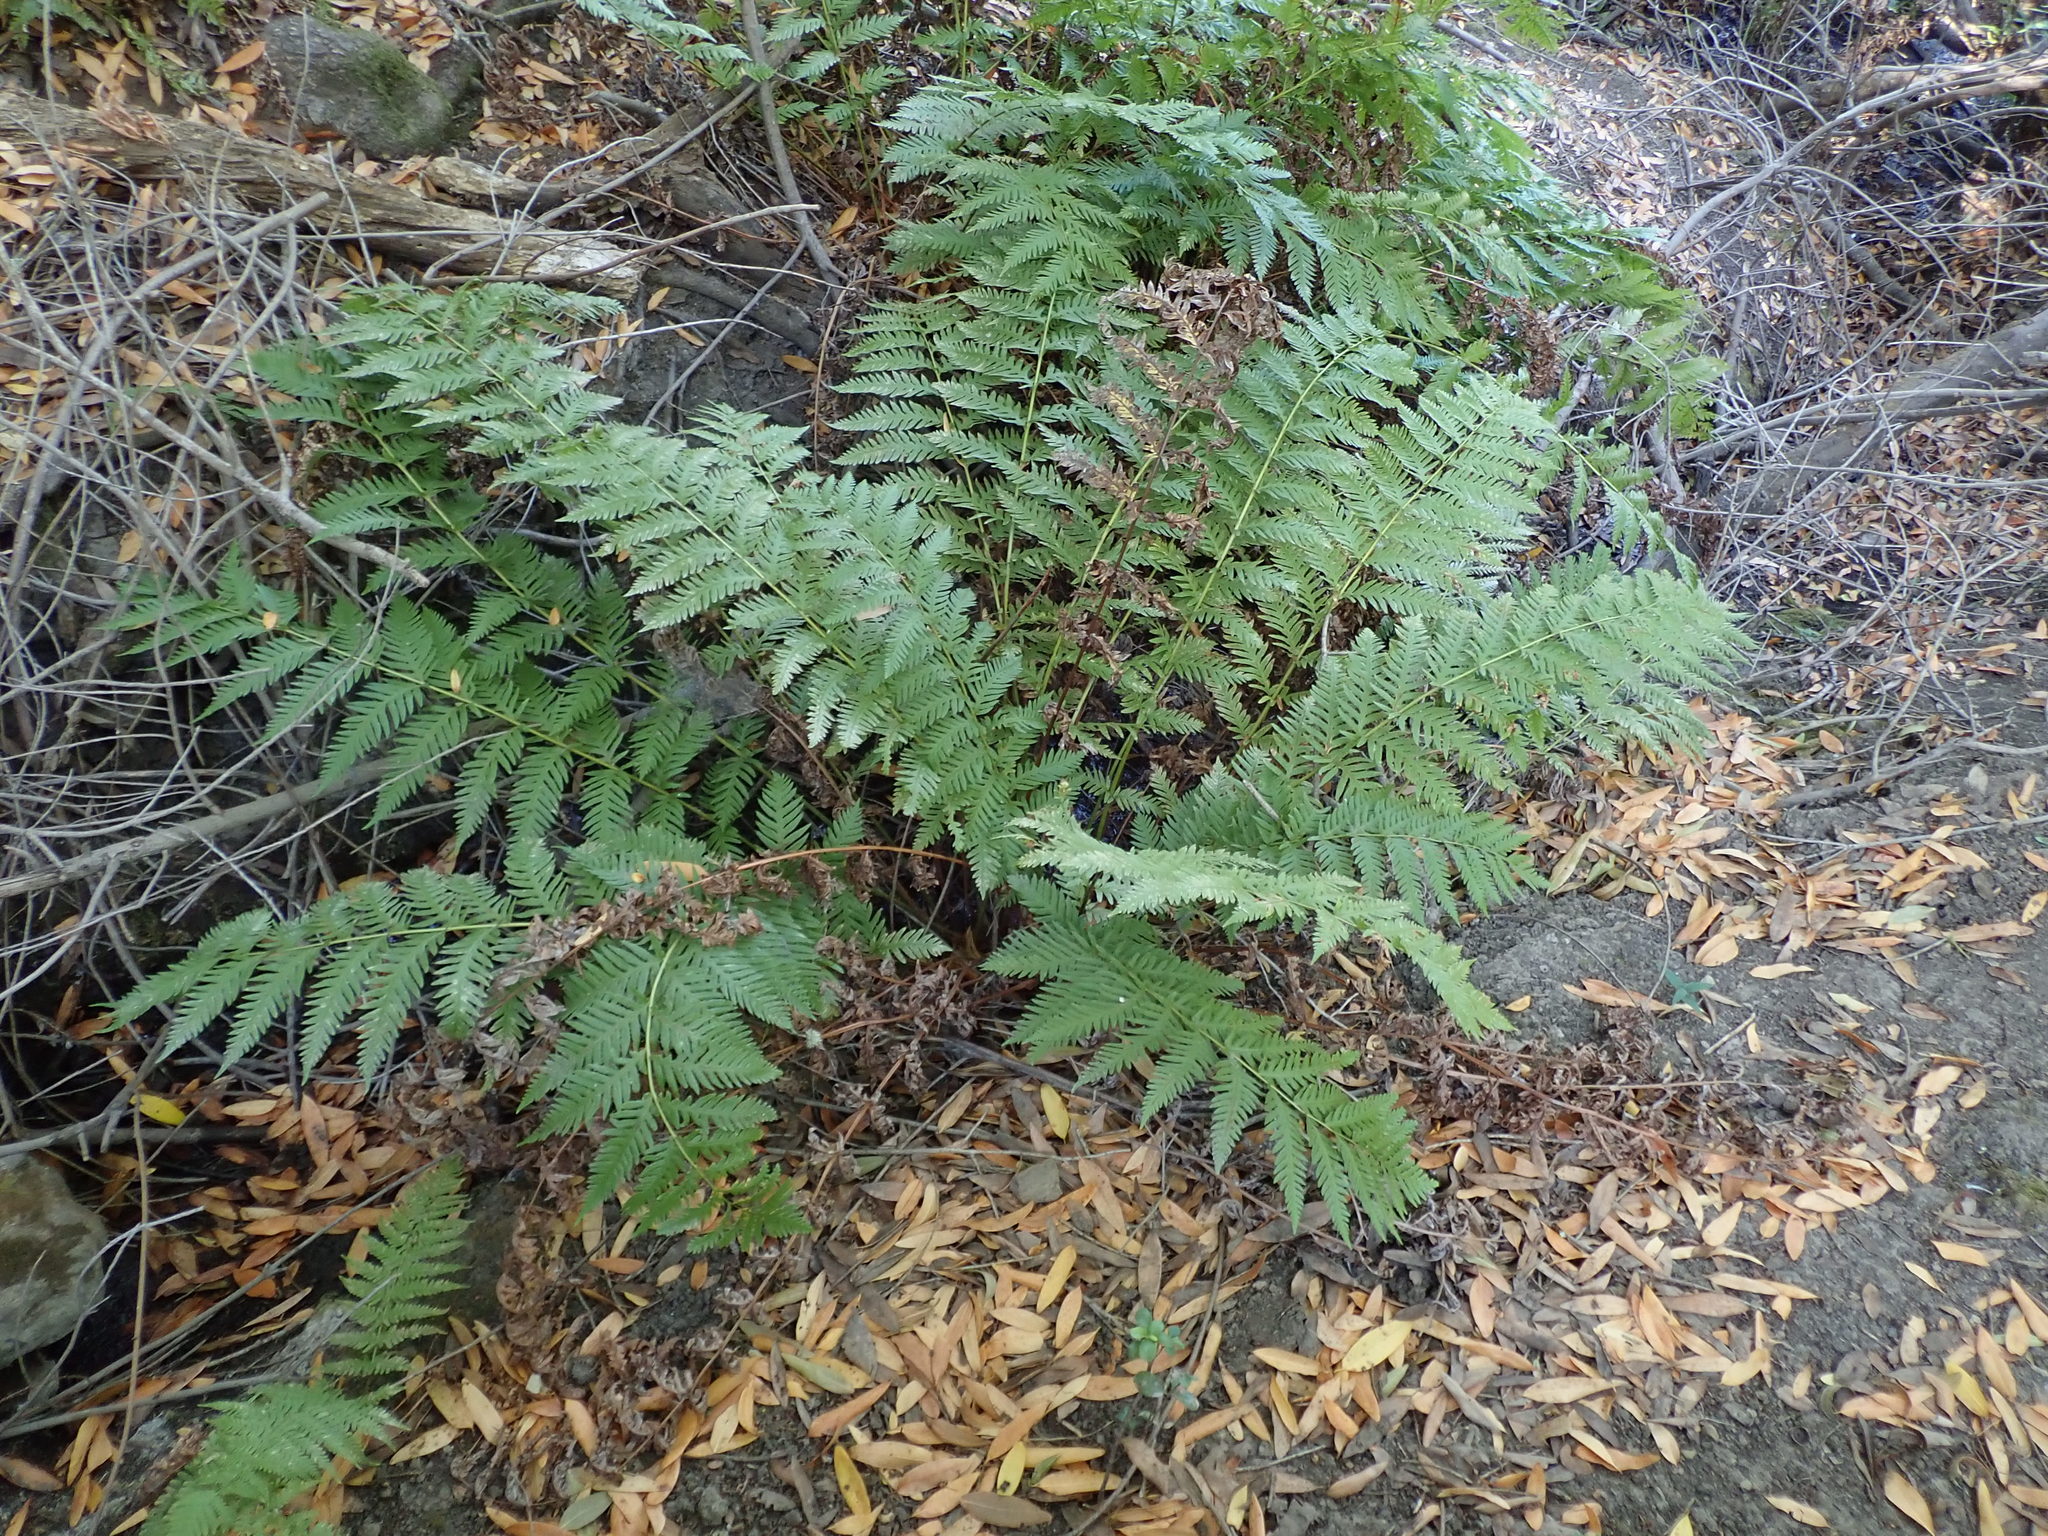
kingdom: Plantae
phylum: Tracheophyta
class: Polypodiopsida
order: Polypodiales
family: Blechnaceae
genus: Woodwardia
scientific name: Woodwardia fimbriata
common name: Giant chain fern
